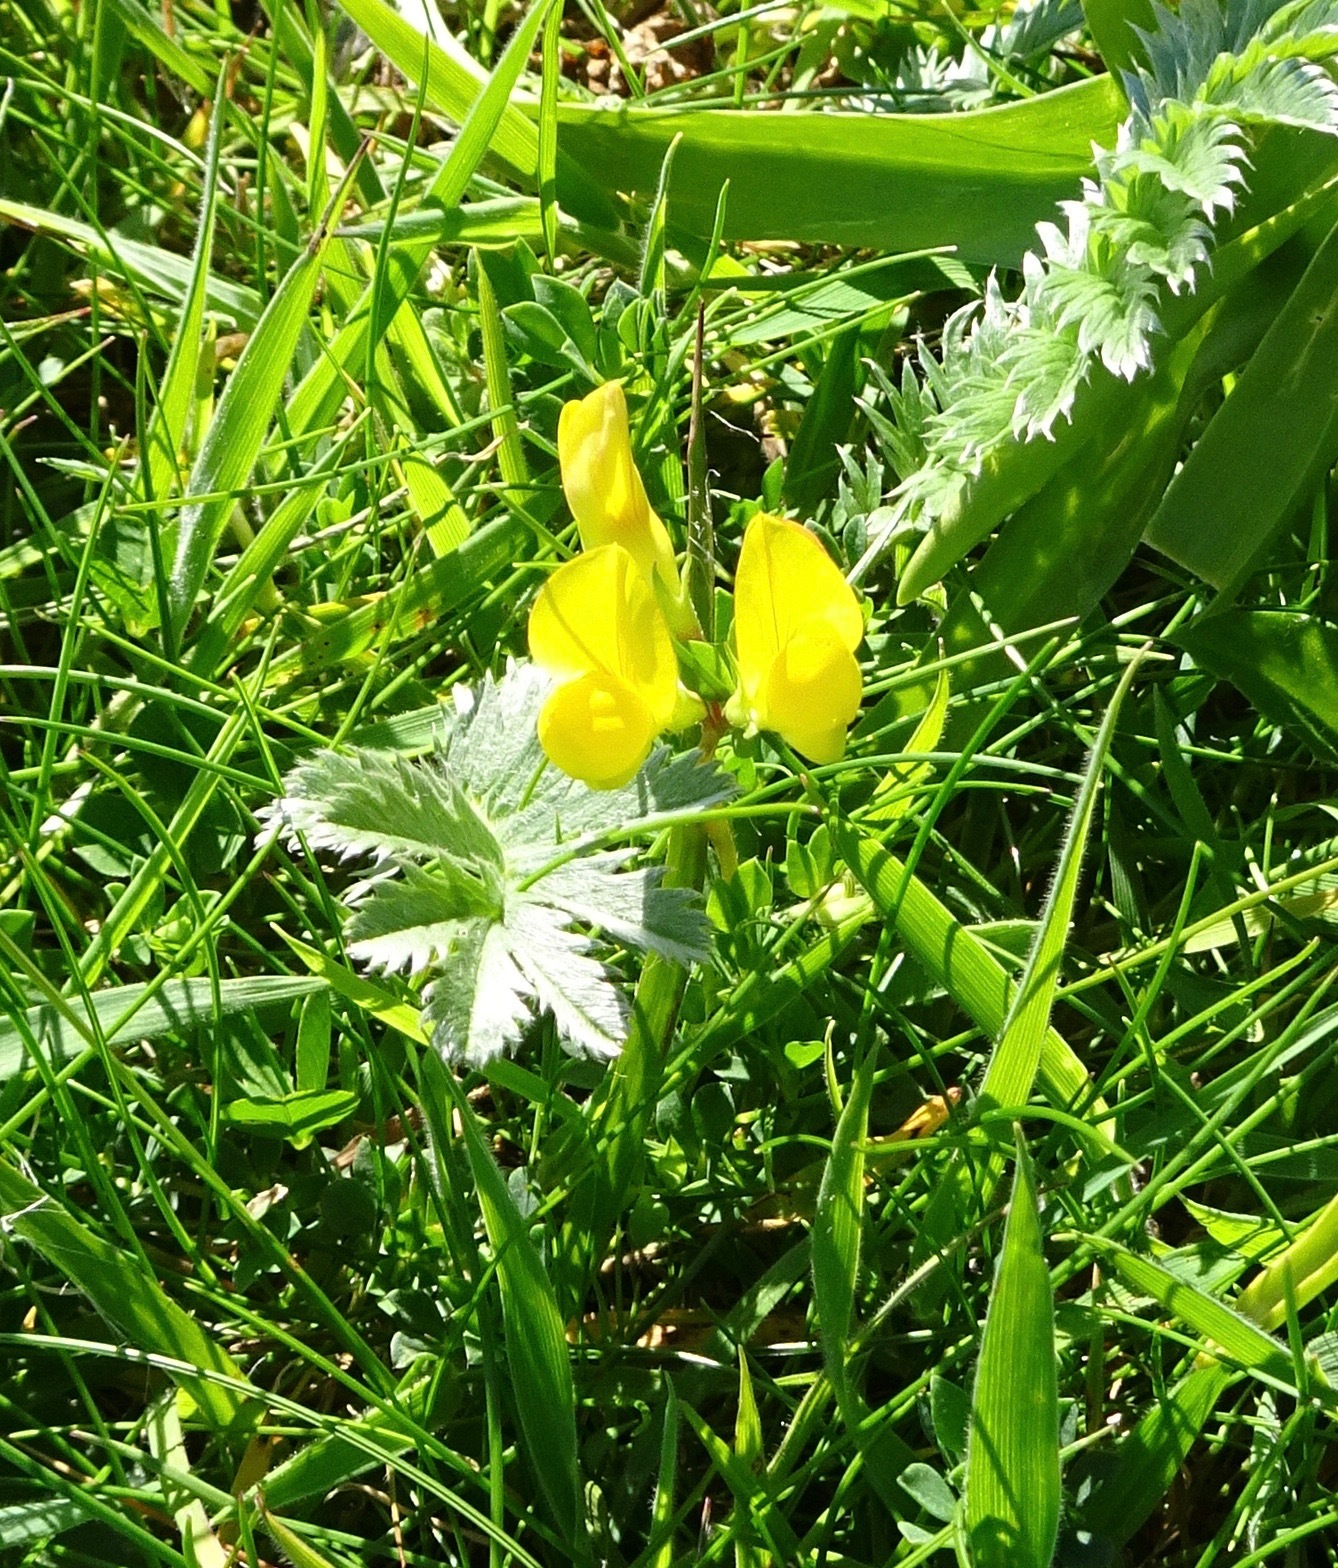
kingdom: Plantae
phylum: Tracheophyta
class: Magnoliopsida
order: Fabales
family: Fabaceae
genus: Lotus
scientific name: Lotus corniculatus
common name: Common bird's-foot-trefoil
